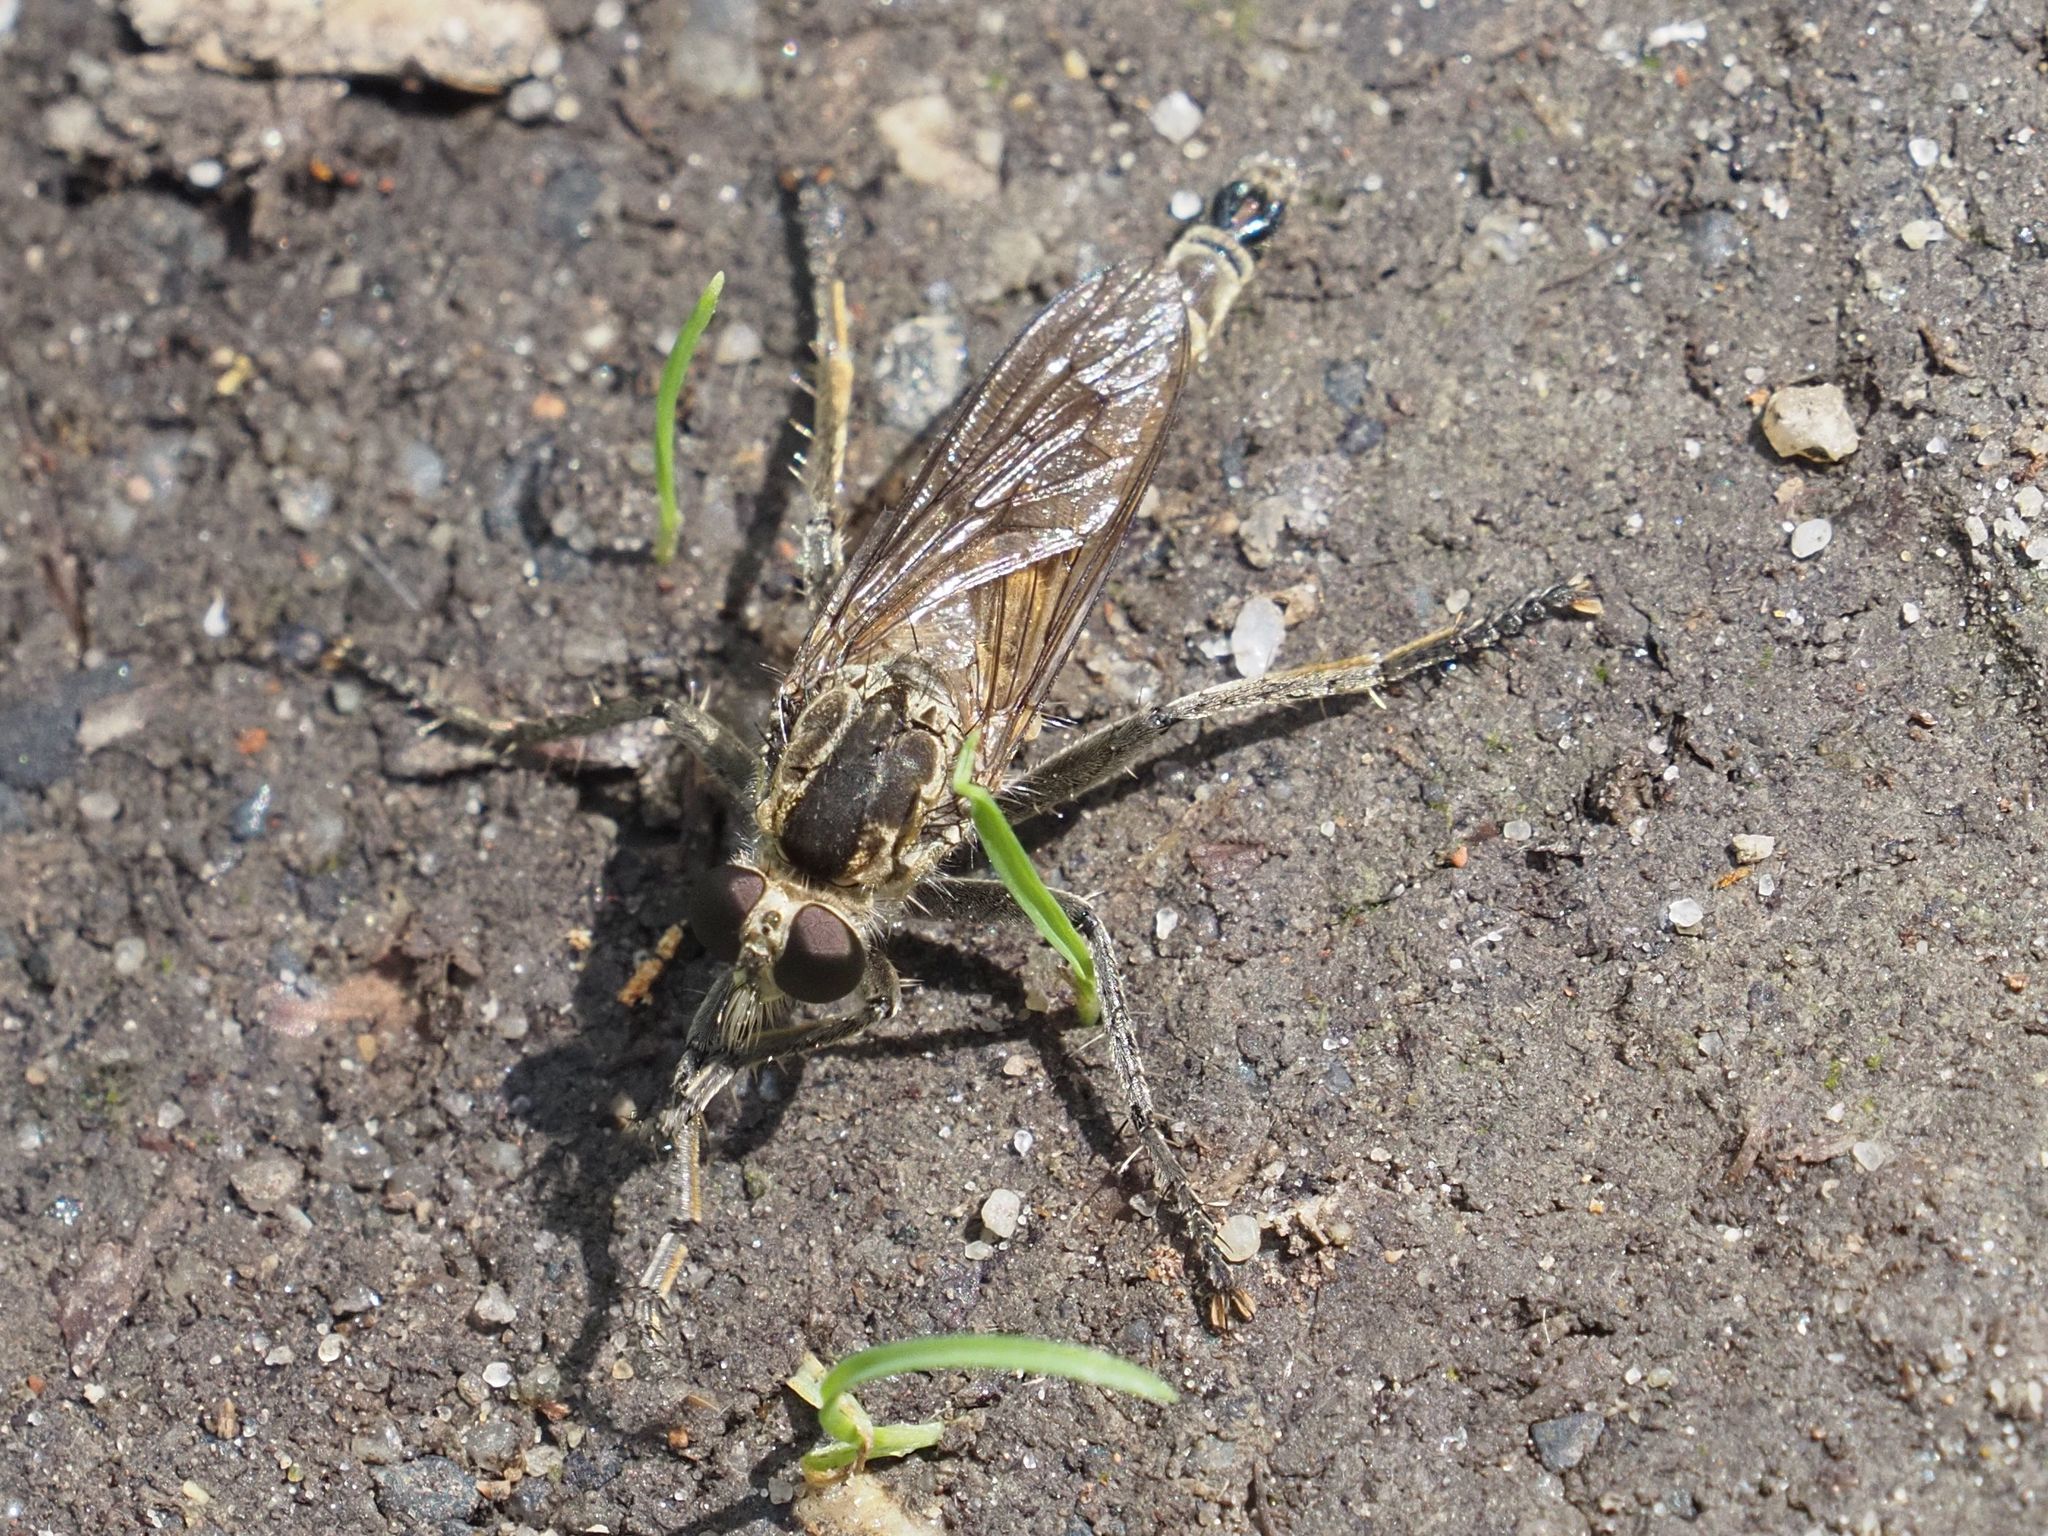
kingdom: Animalia
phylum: Arthropoda
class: Insecta
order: Diptera
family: Asilidae
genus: Philonicus
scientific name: Philonicus albiceps
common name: Dune robberfly
